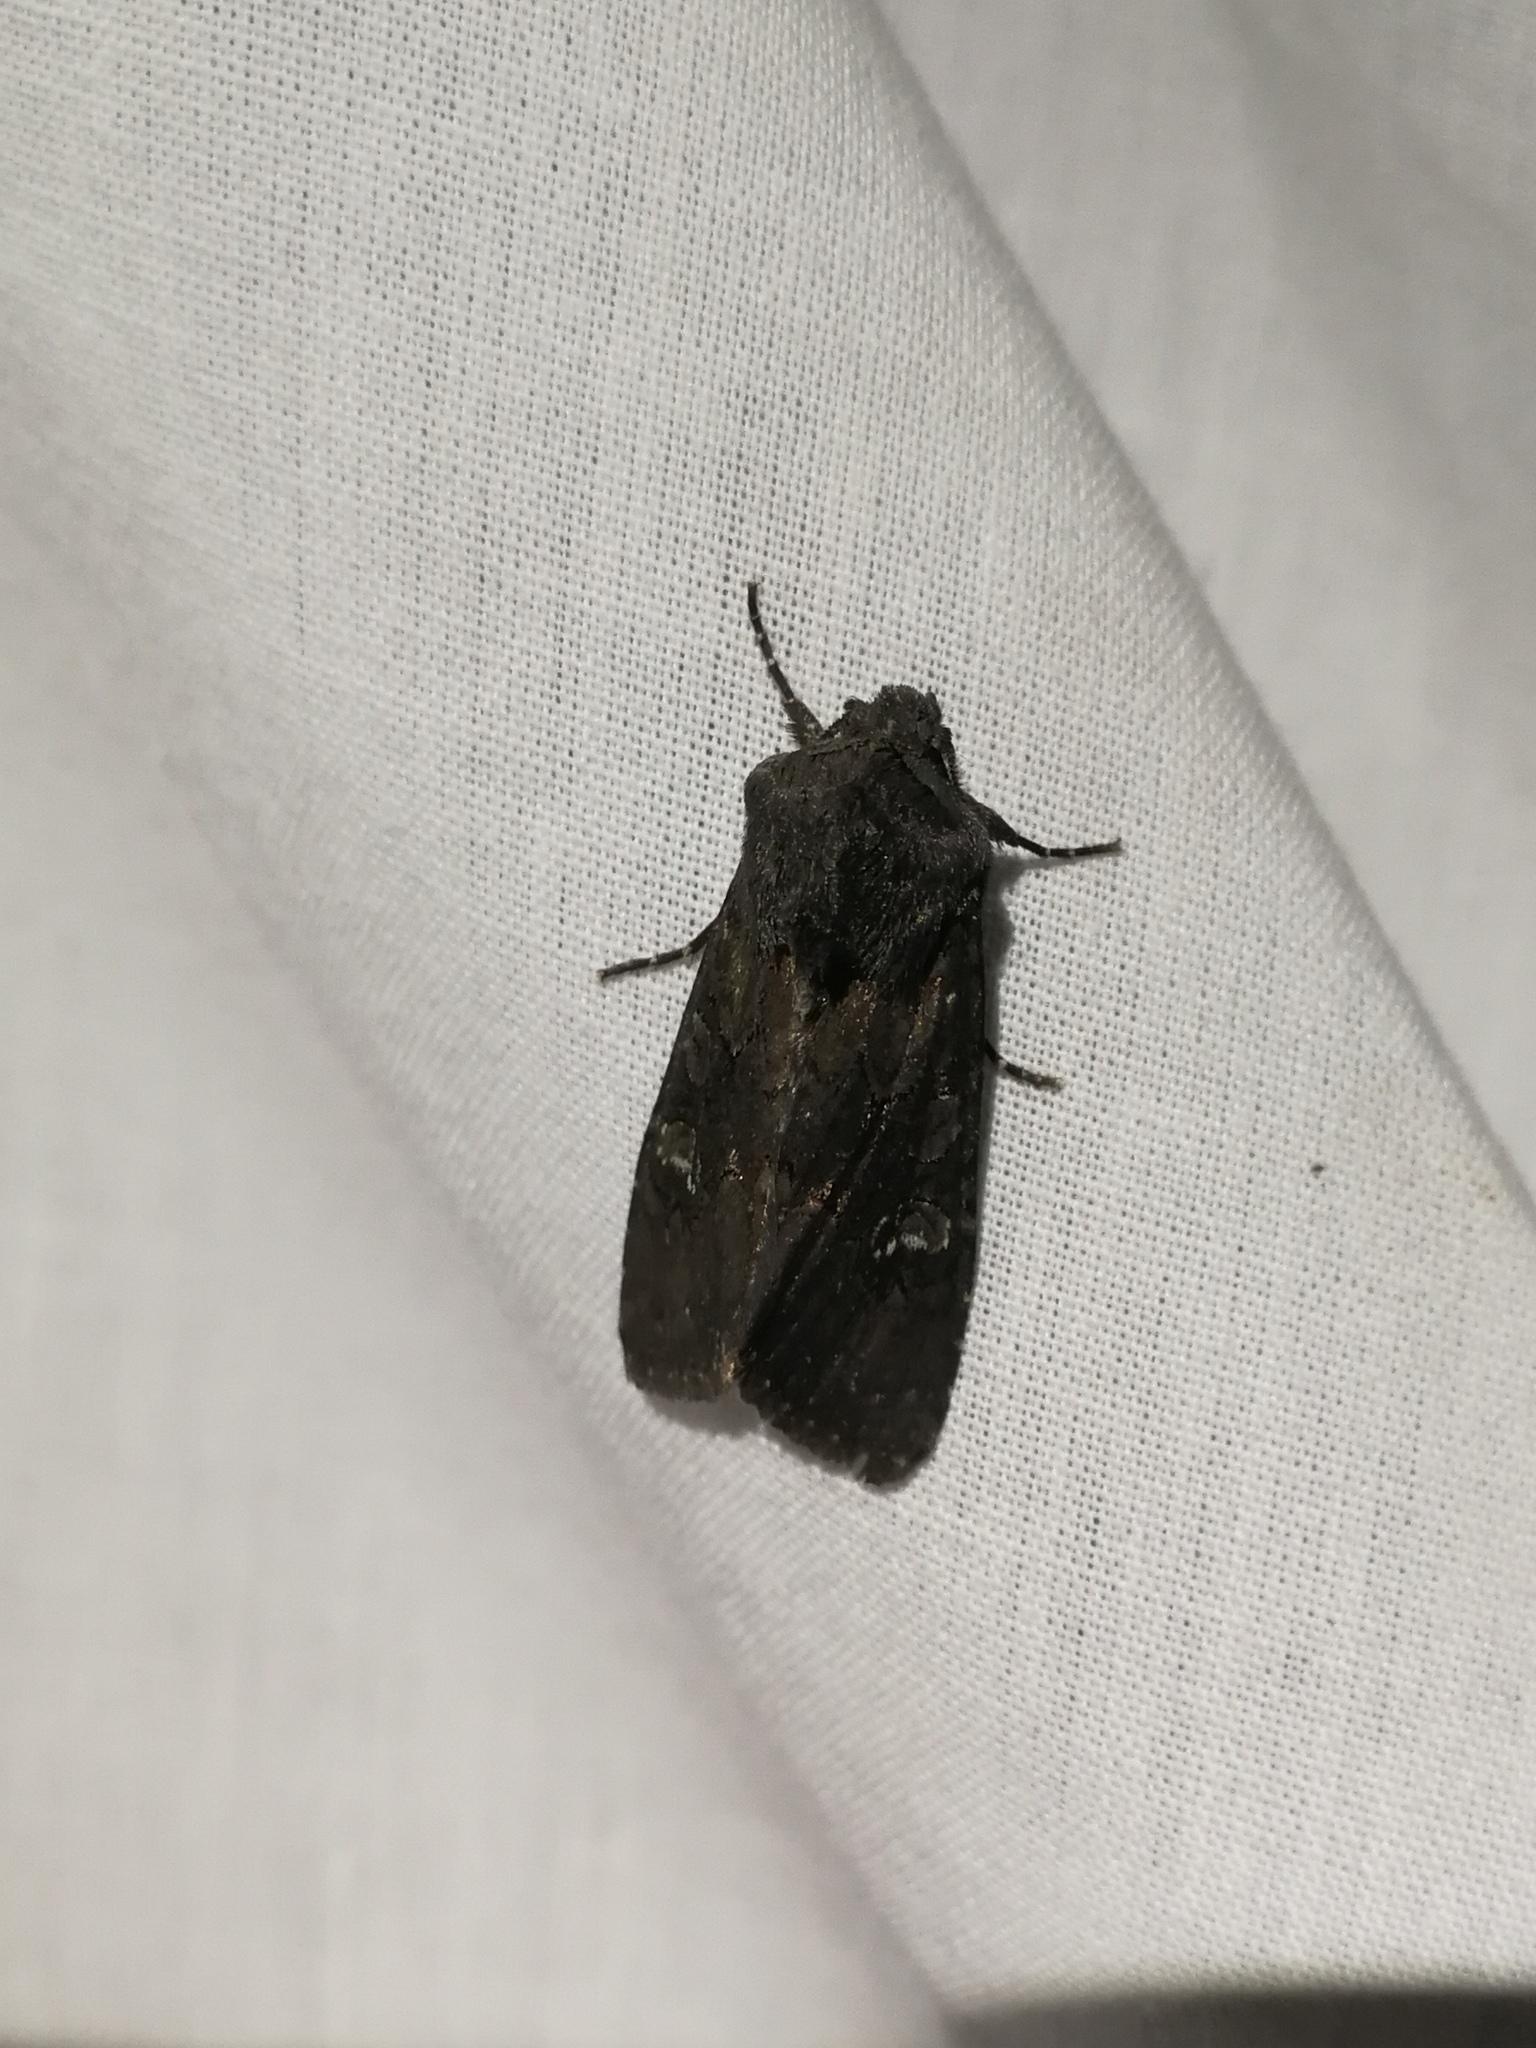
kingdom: Animalia
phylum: Arthropoda
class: Insecta
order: Lepidoptera
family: Noctuidae
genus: Aporophyla
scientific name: Aporophyla nigra
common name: Black rustic
